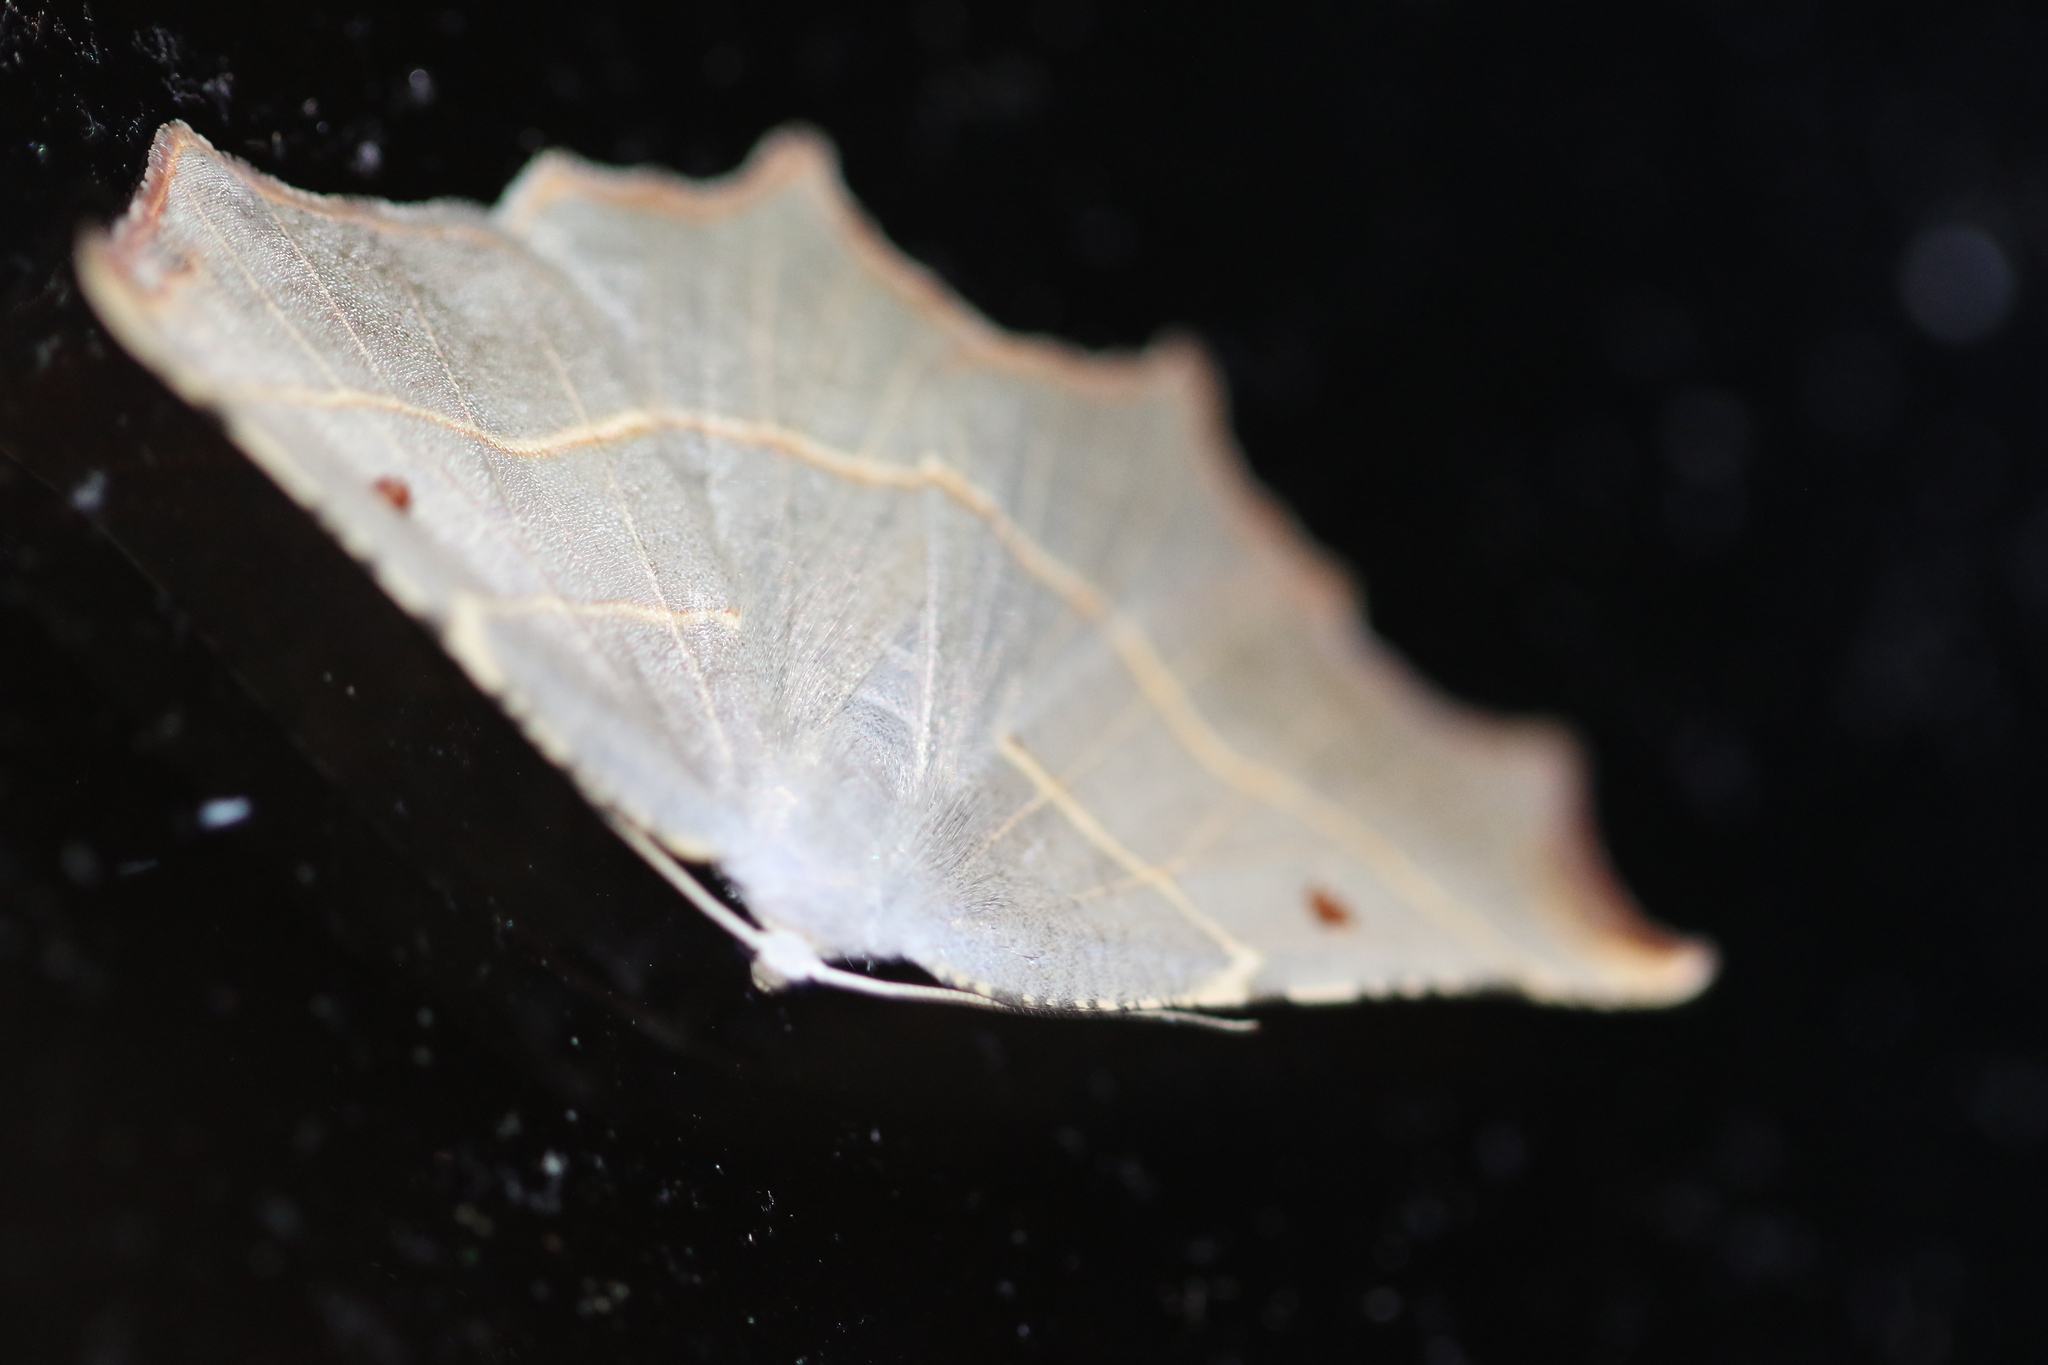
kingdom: Animalia
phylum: Arthropoda
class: Insecta
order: Lepidoptera
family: Geometridae
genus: Metanema
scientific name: Metanema inatomaria
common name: Pale metanema
